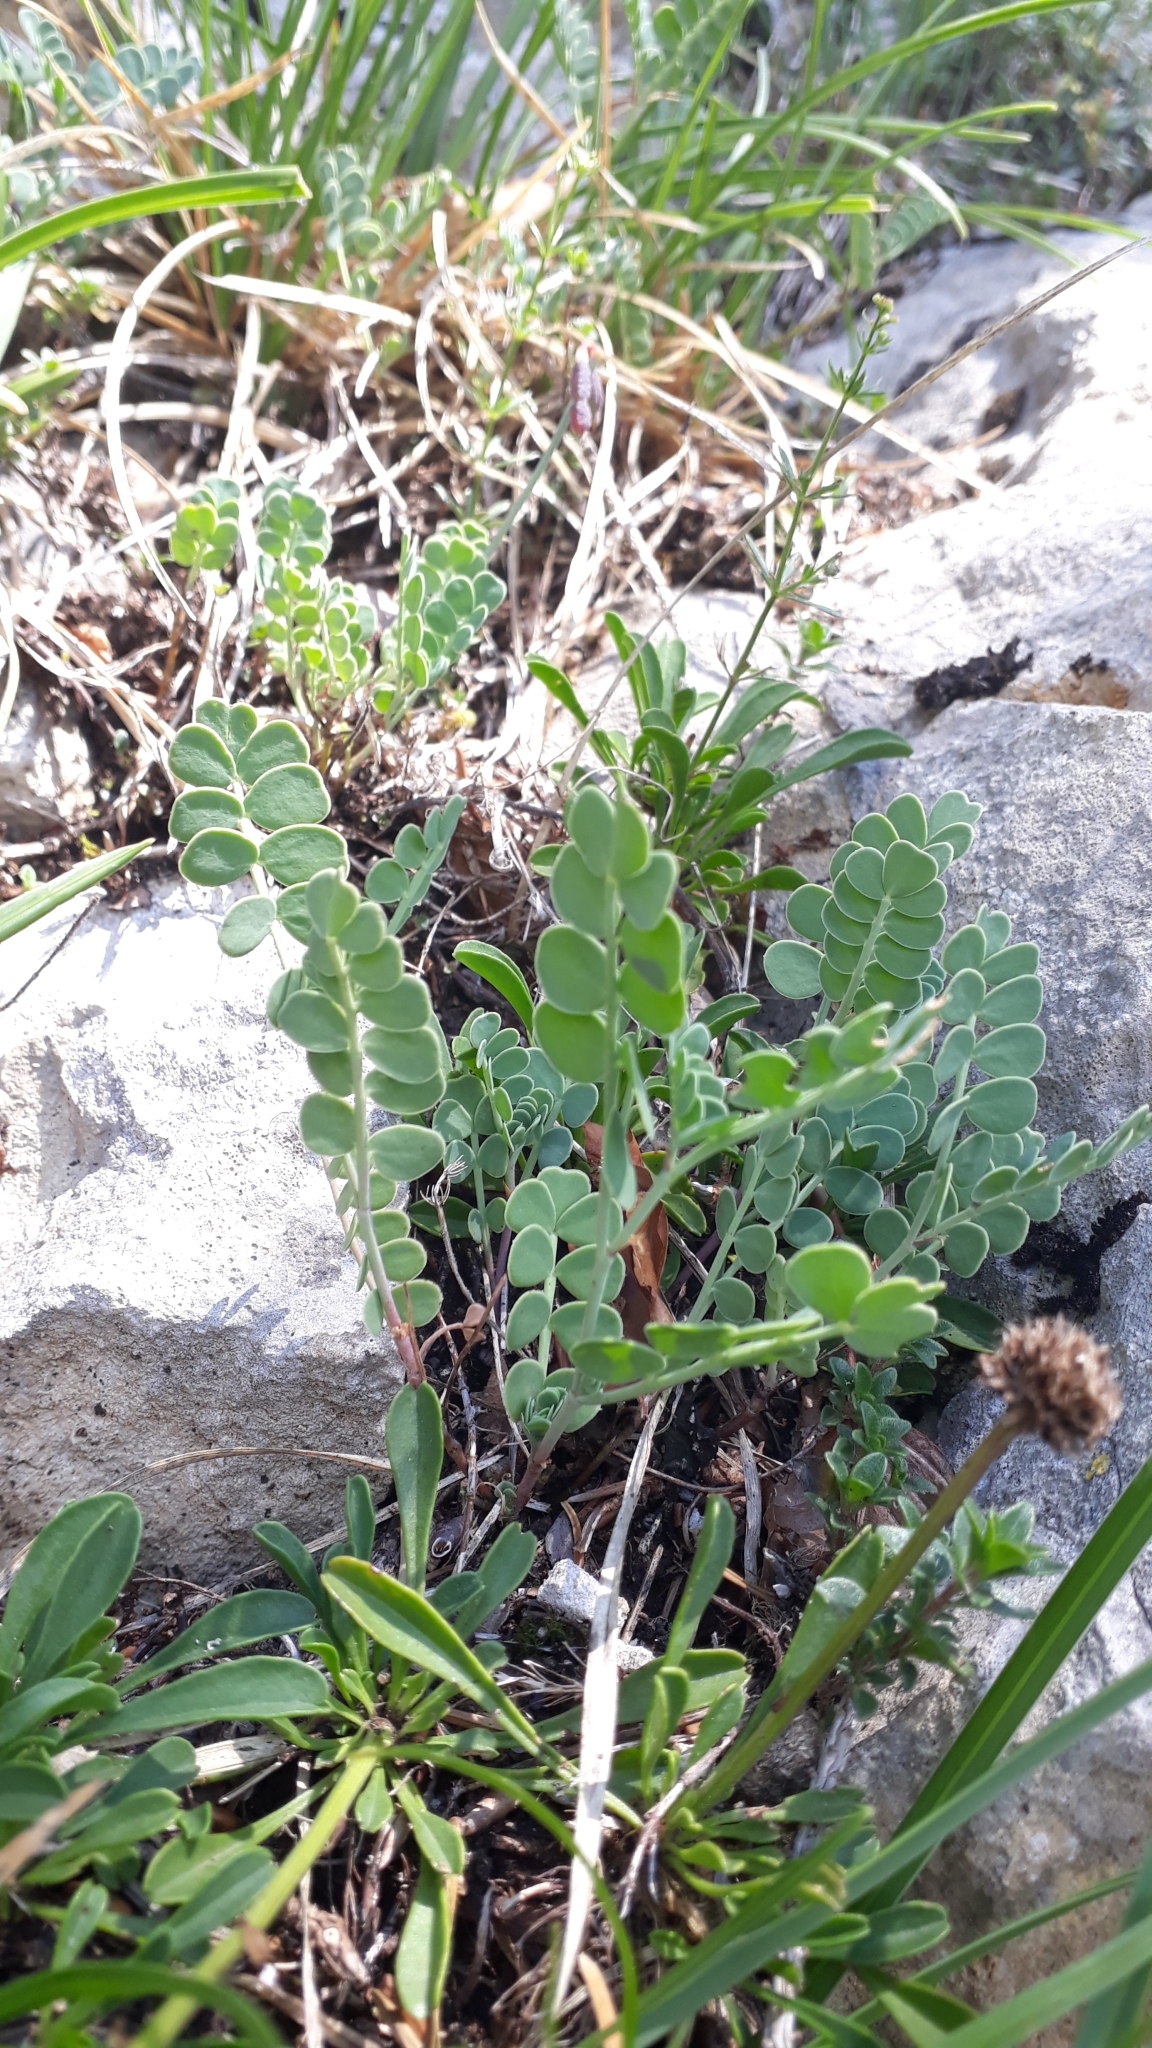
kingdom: Plantae
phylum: Tracheophyta
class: Magnoliopsida
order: Fabales
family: Fabaceae
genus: Coronilla
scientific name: Coronilla vaginalis
